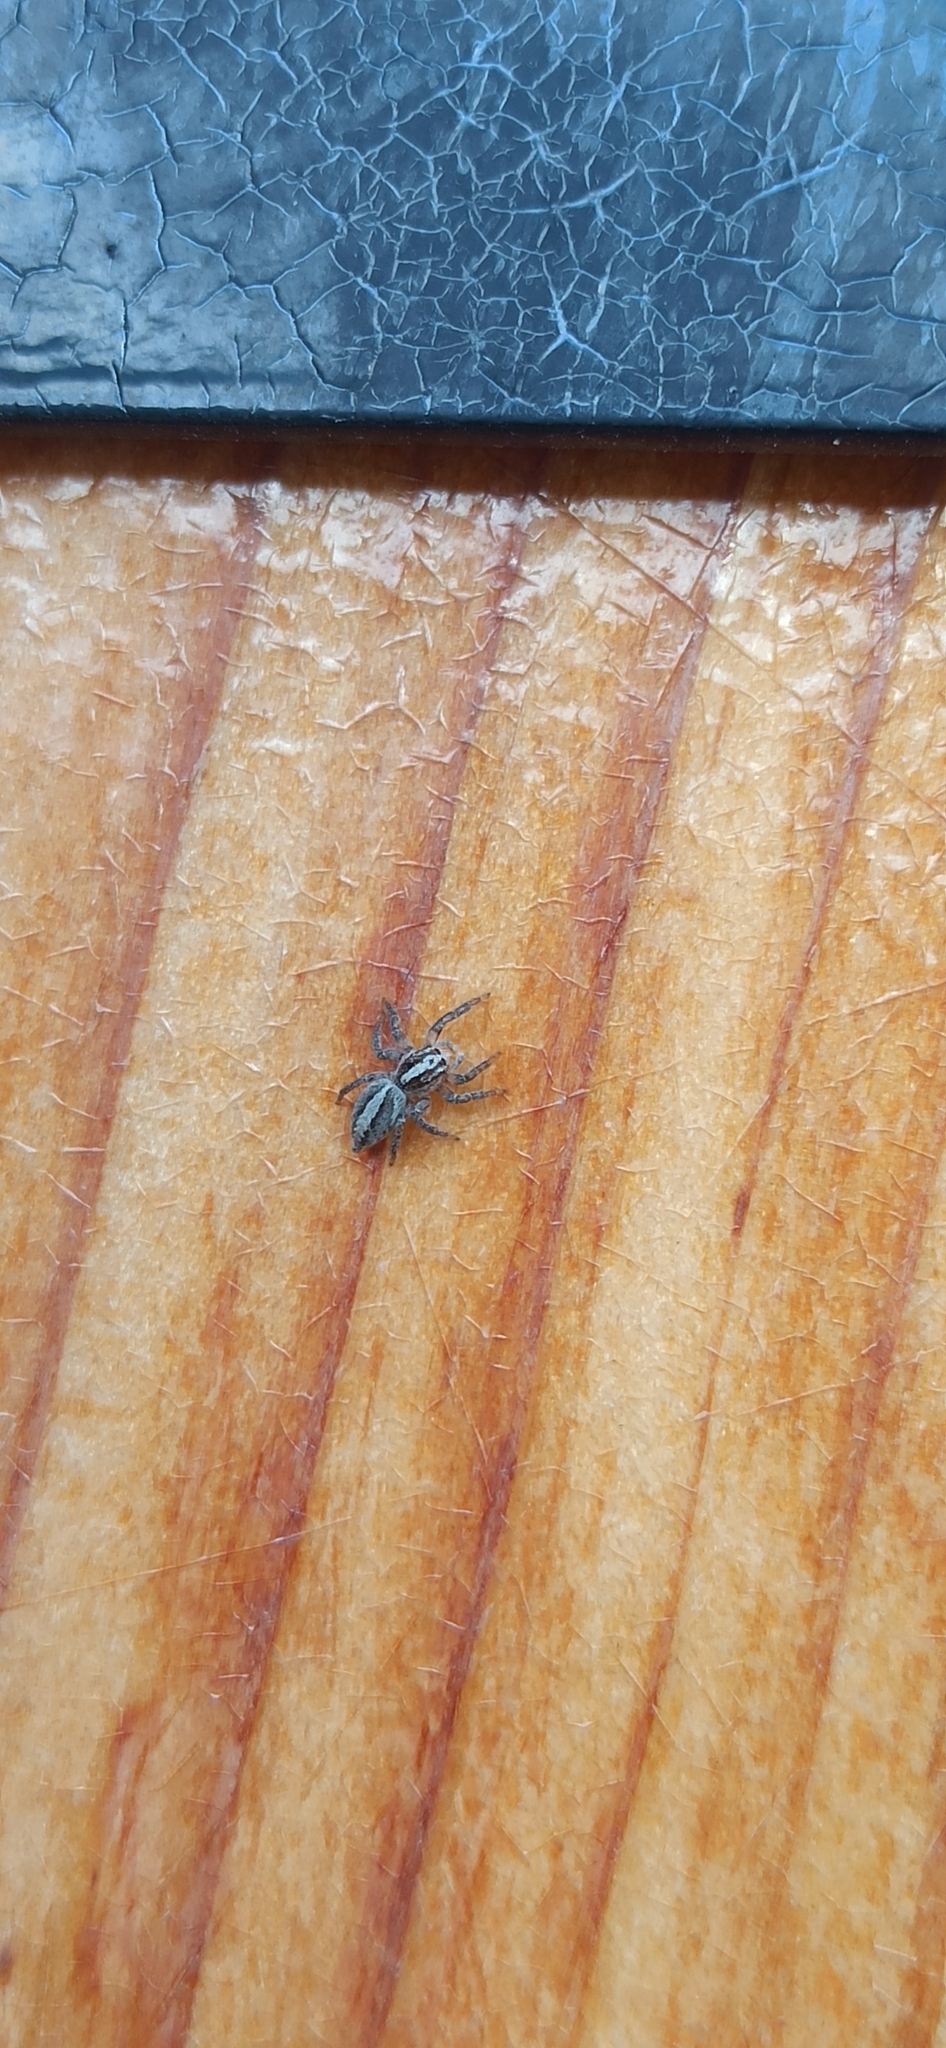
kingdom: Animalia
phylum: Arthropoda
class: Arachnida
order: Araneae
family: Salticidae
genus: Frigga
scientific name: Frigga crocuta
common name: Jumping spiders
